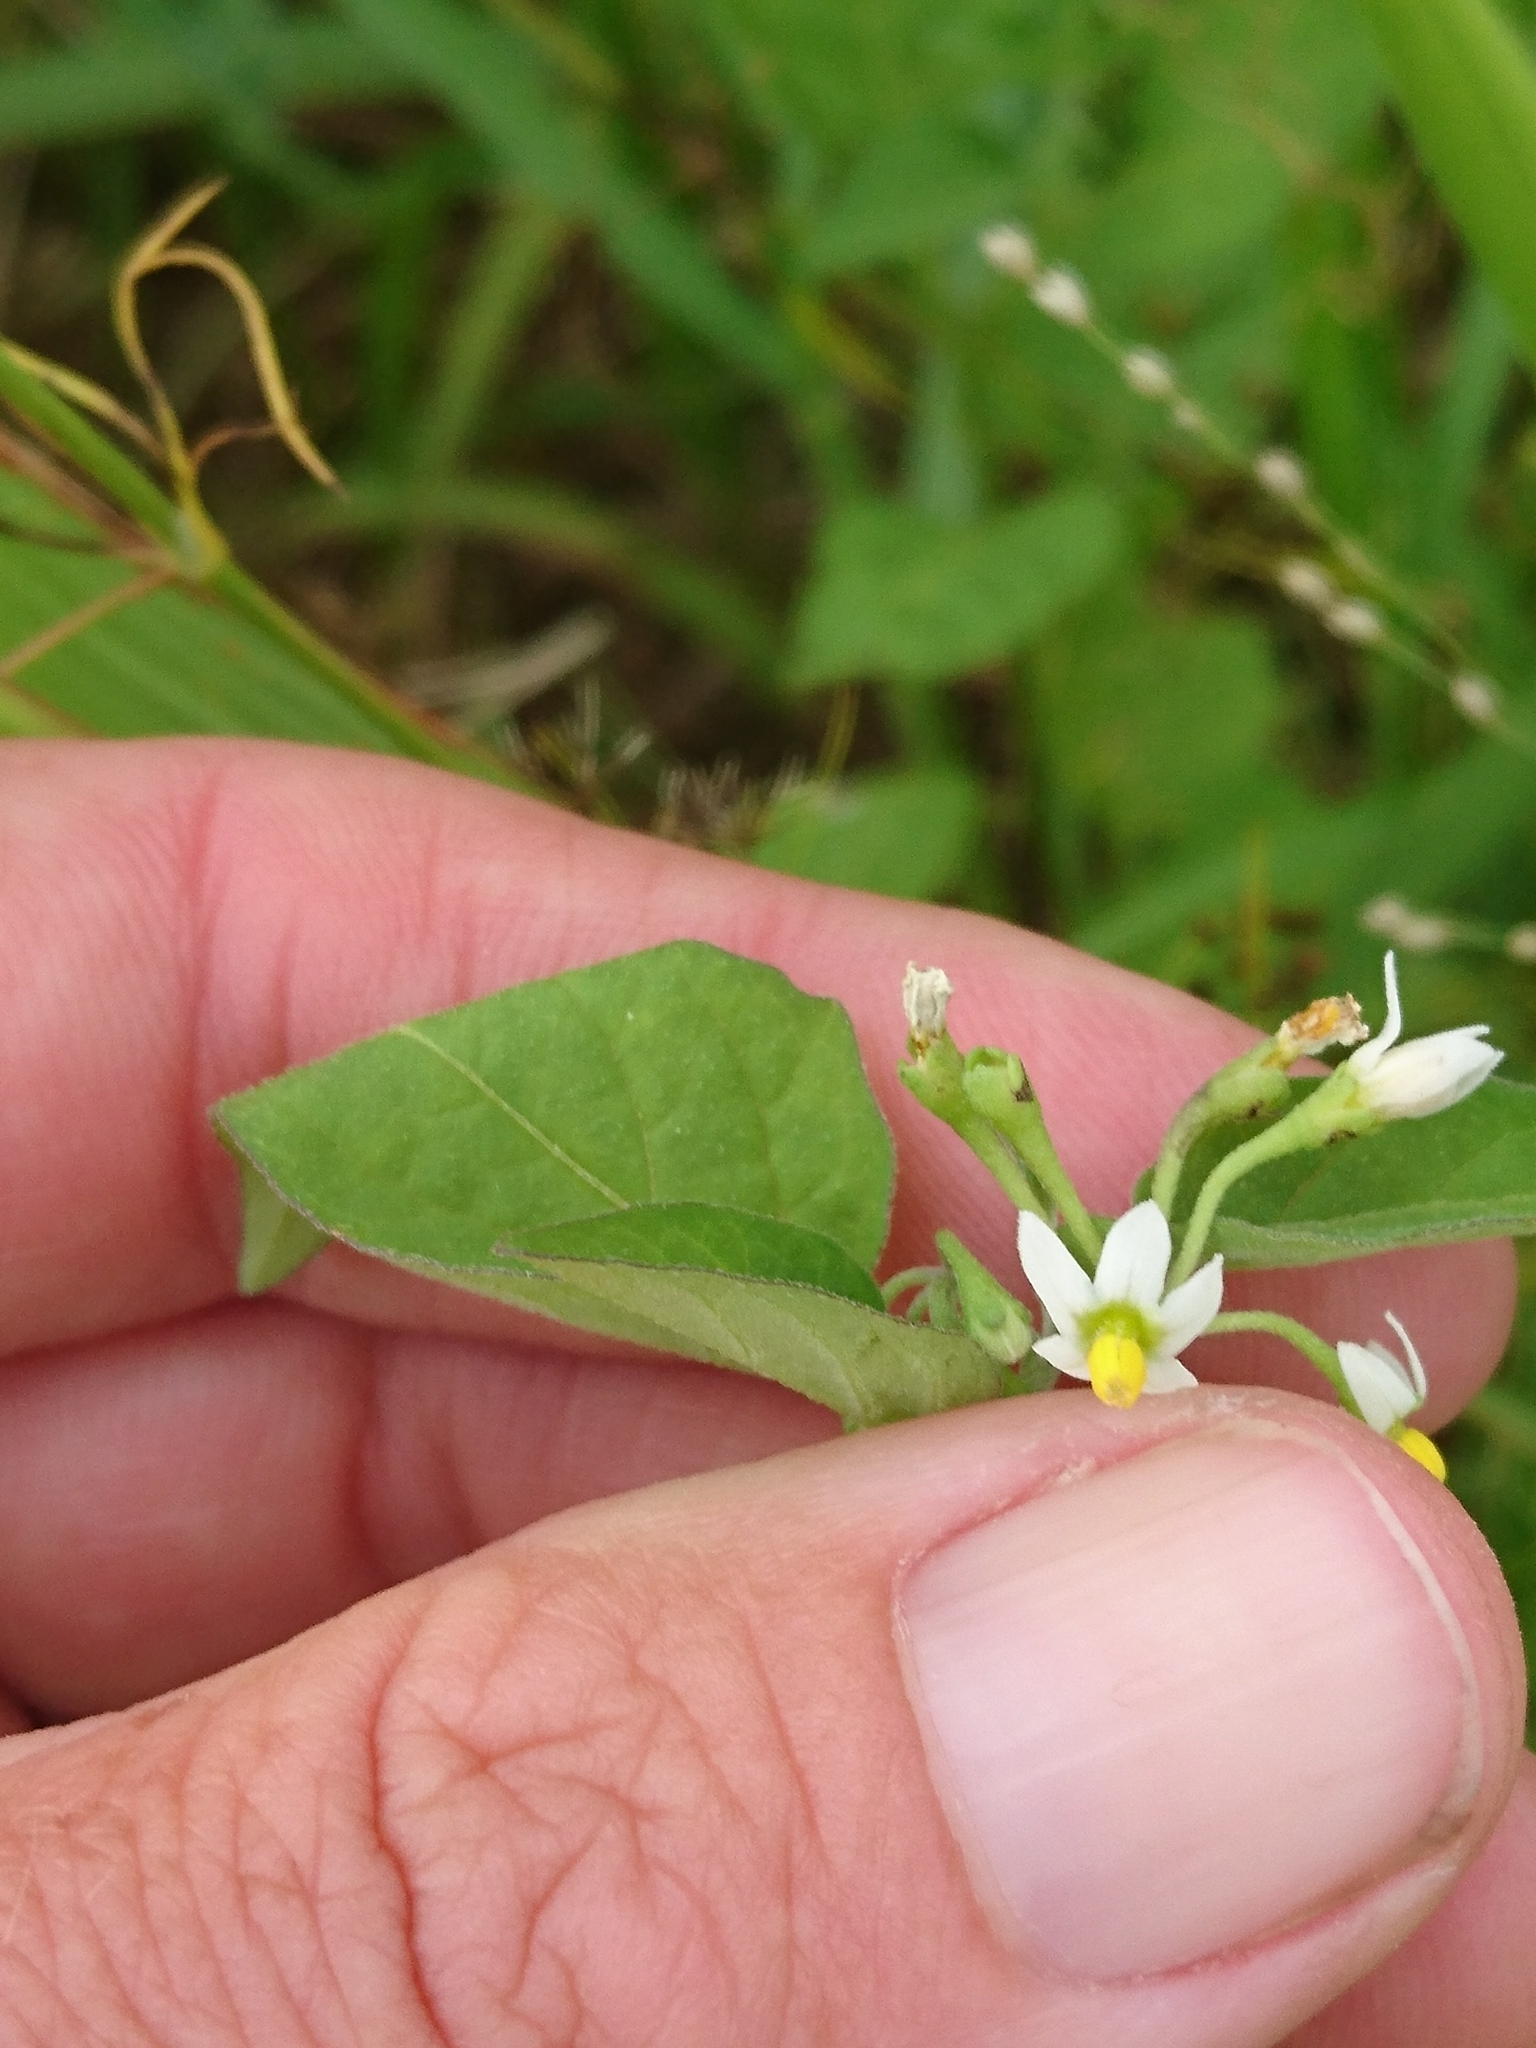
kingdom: Plantae
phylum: Tracheophyta
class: Magnoliopsida
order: Solanales
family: Solanaceae
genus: Solanum
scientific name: Solanum americanum
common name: American black nightshade
